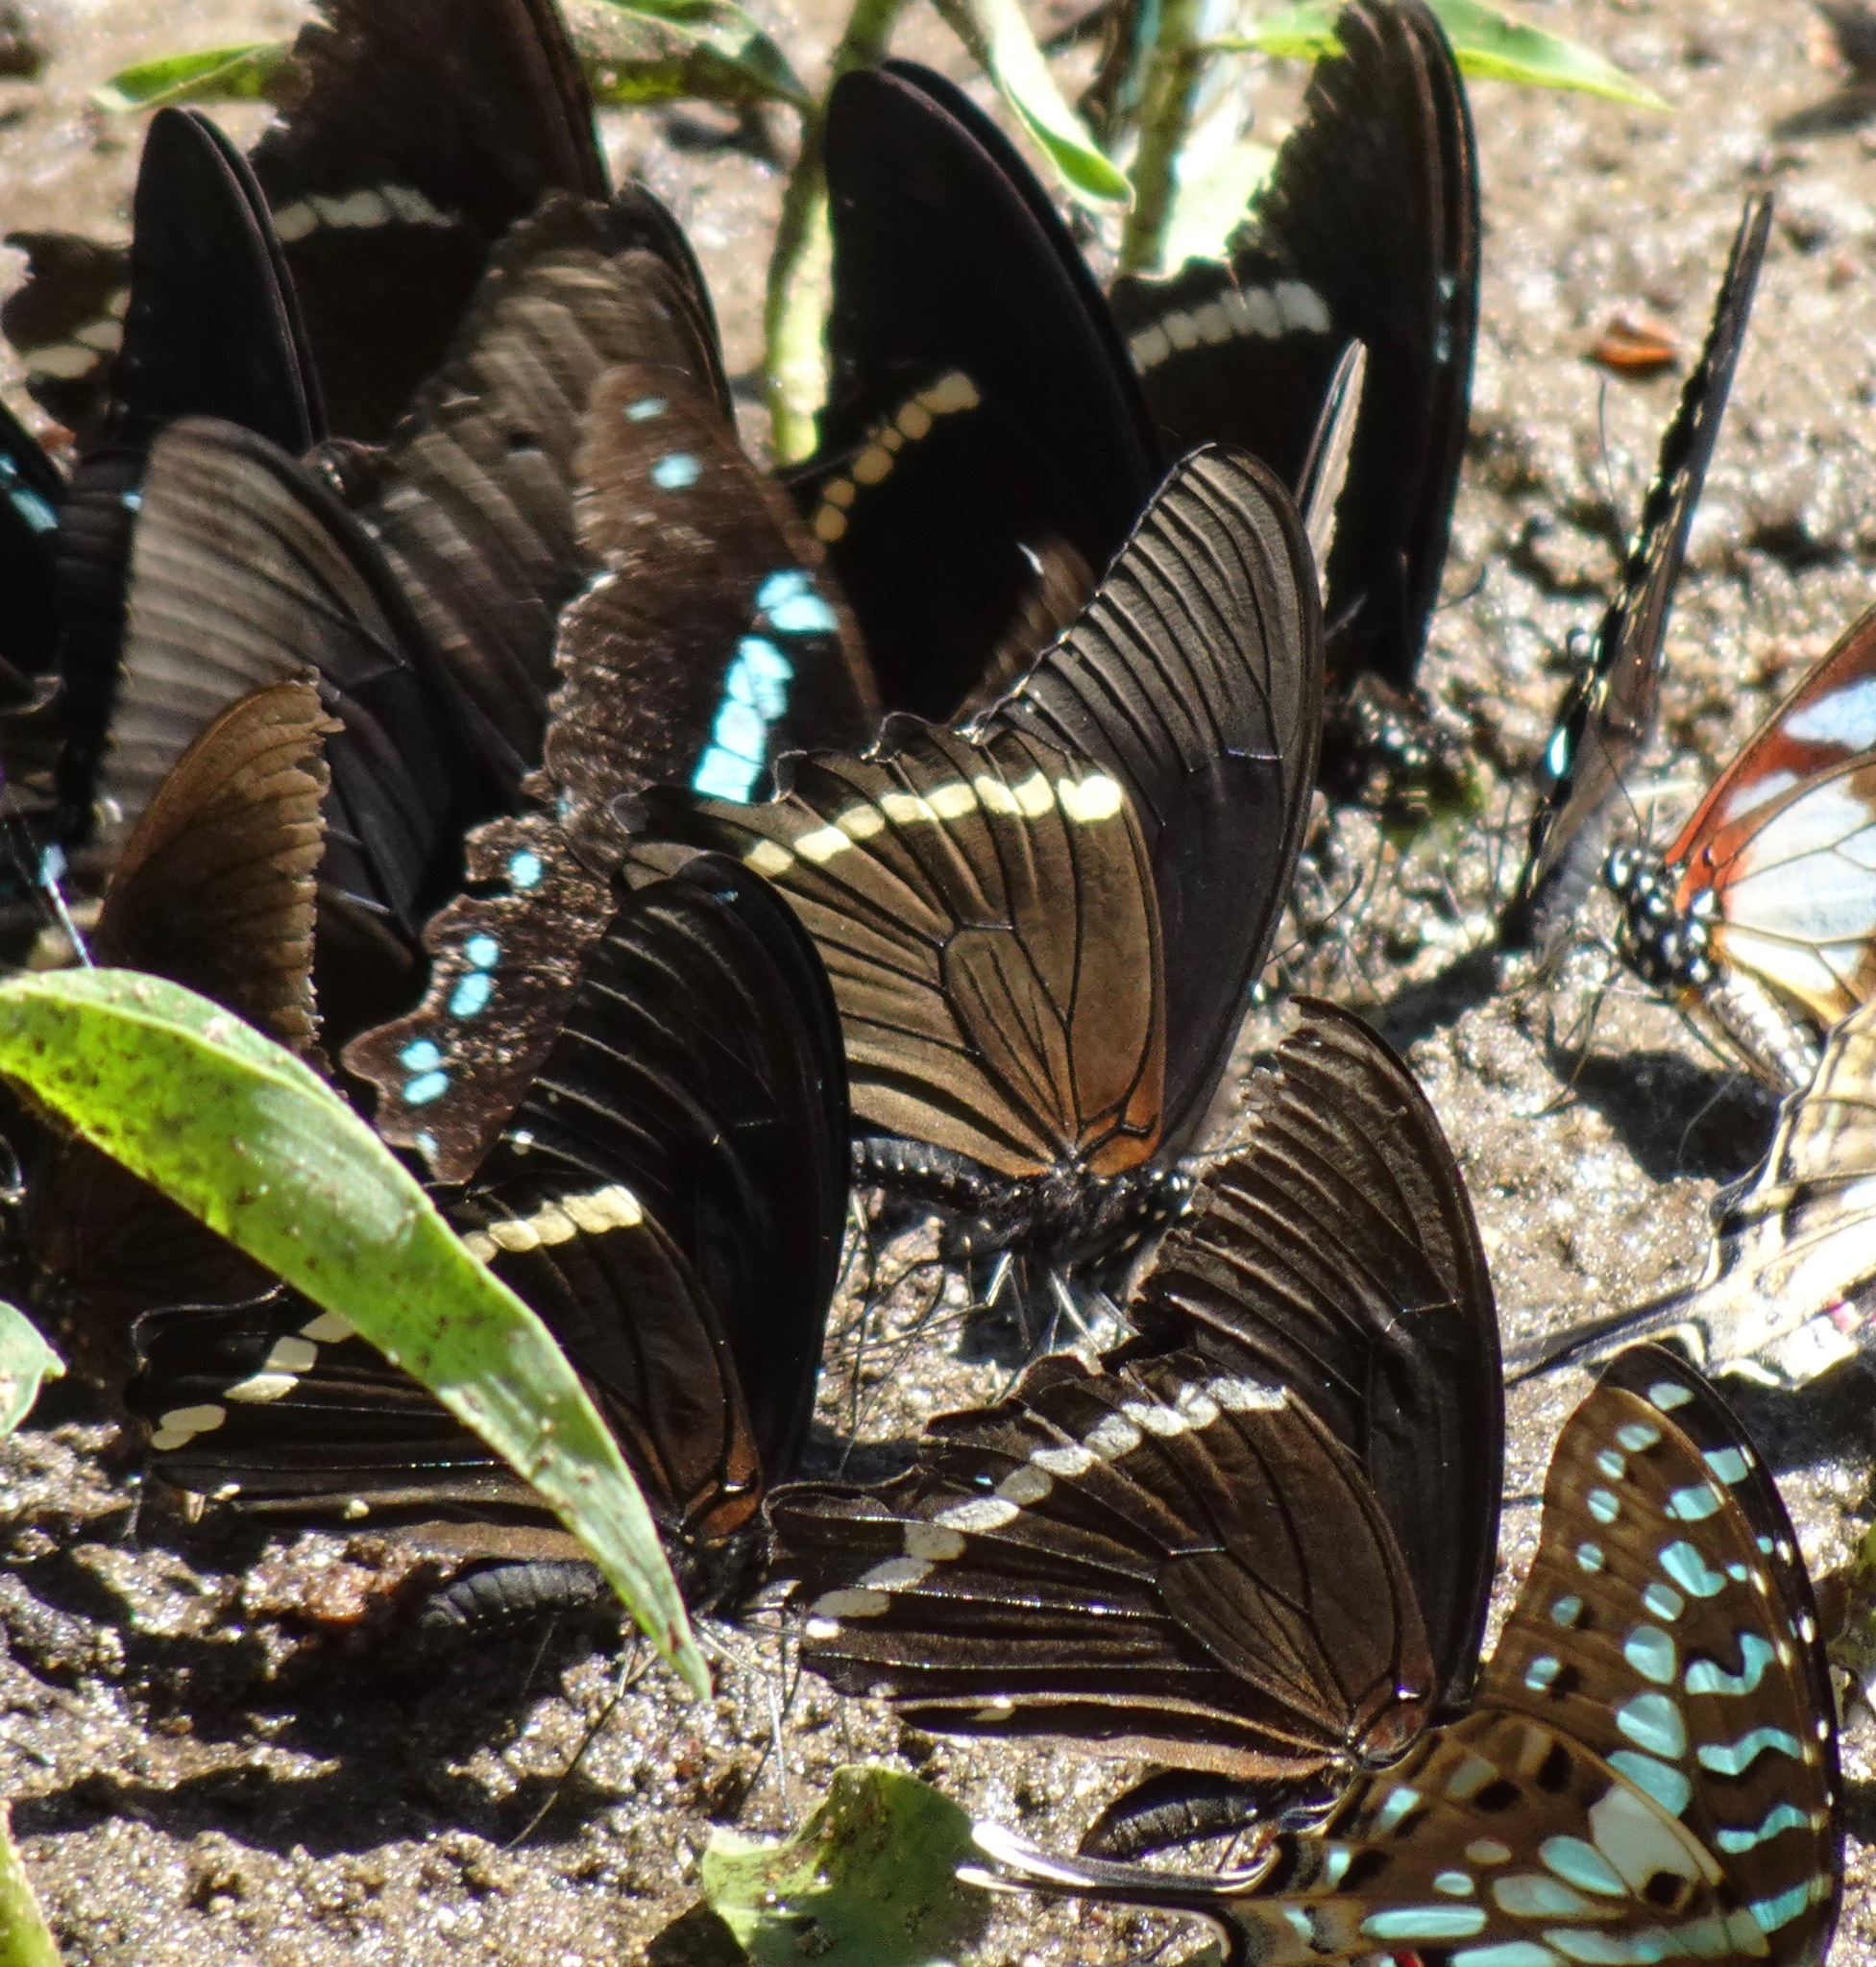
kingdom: Animalia
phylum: Arthropoda
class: Insecta
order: Lepidoptera
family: Papilionidae
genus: Papilio
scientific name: Papilio nireus
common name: Greenbanded swallowtail
